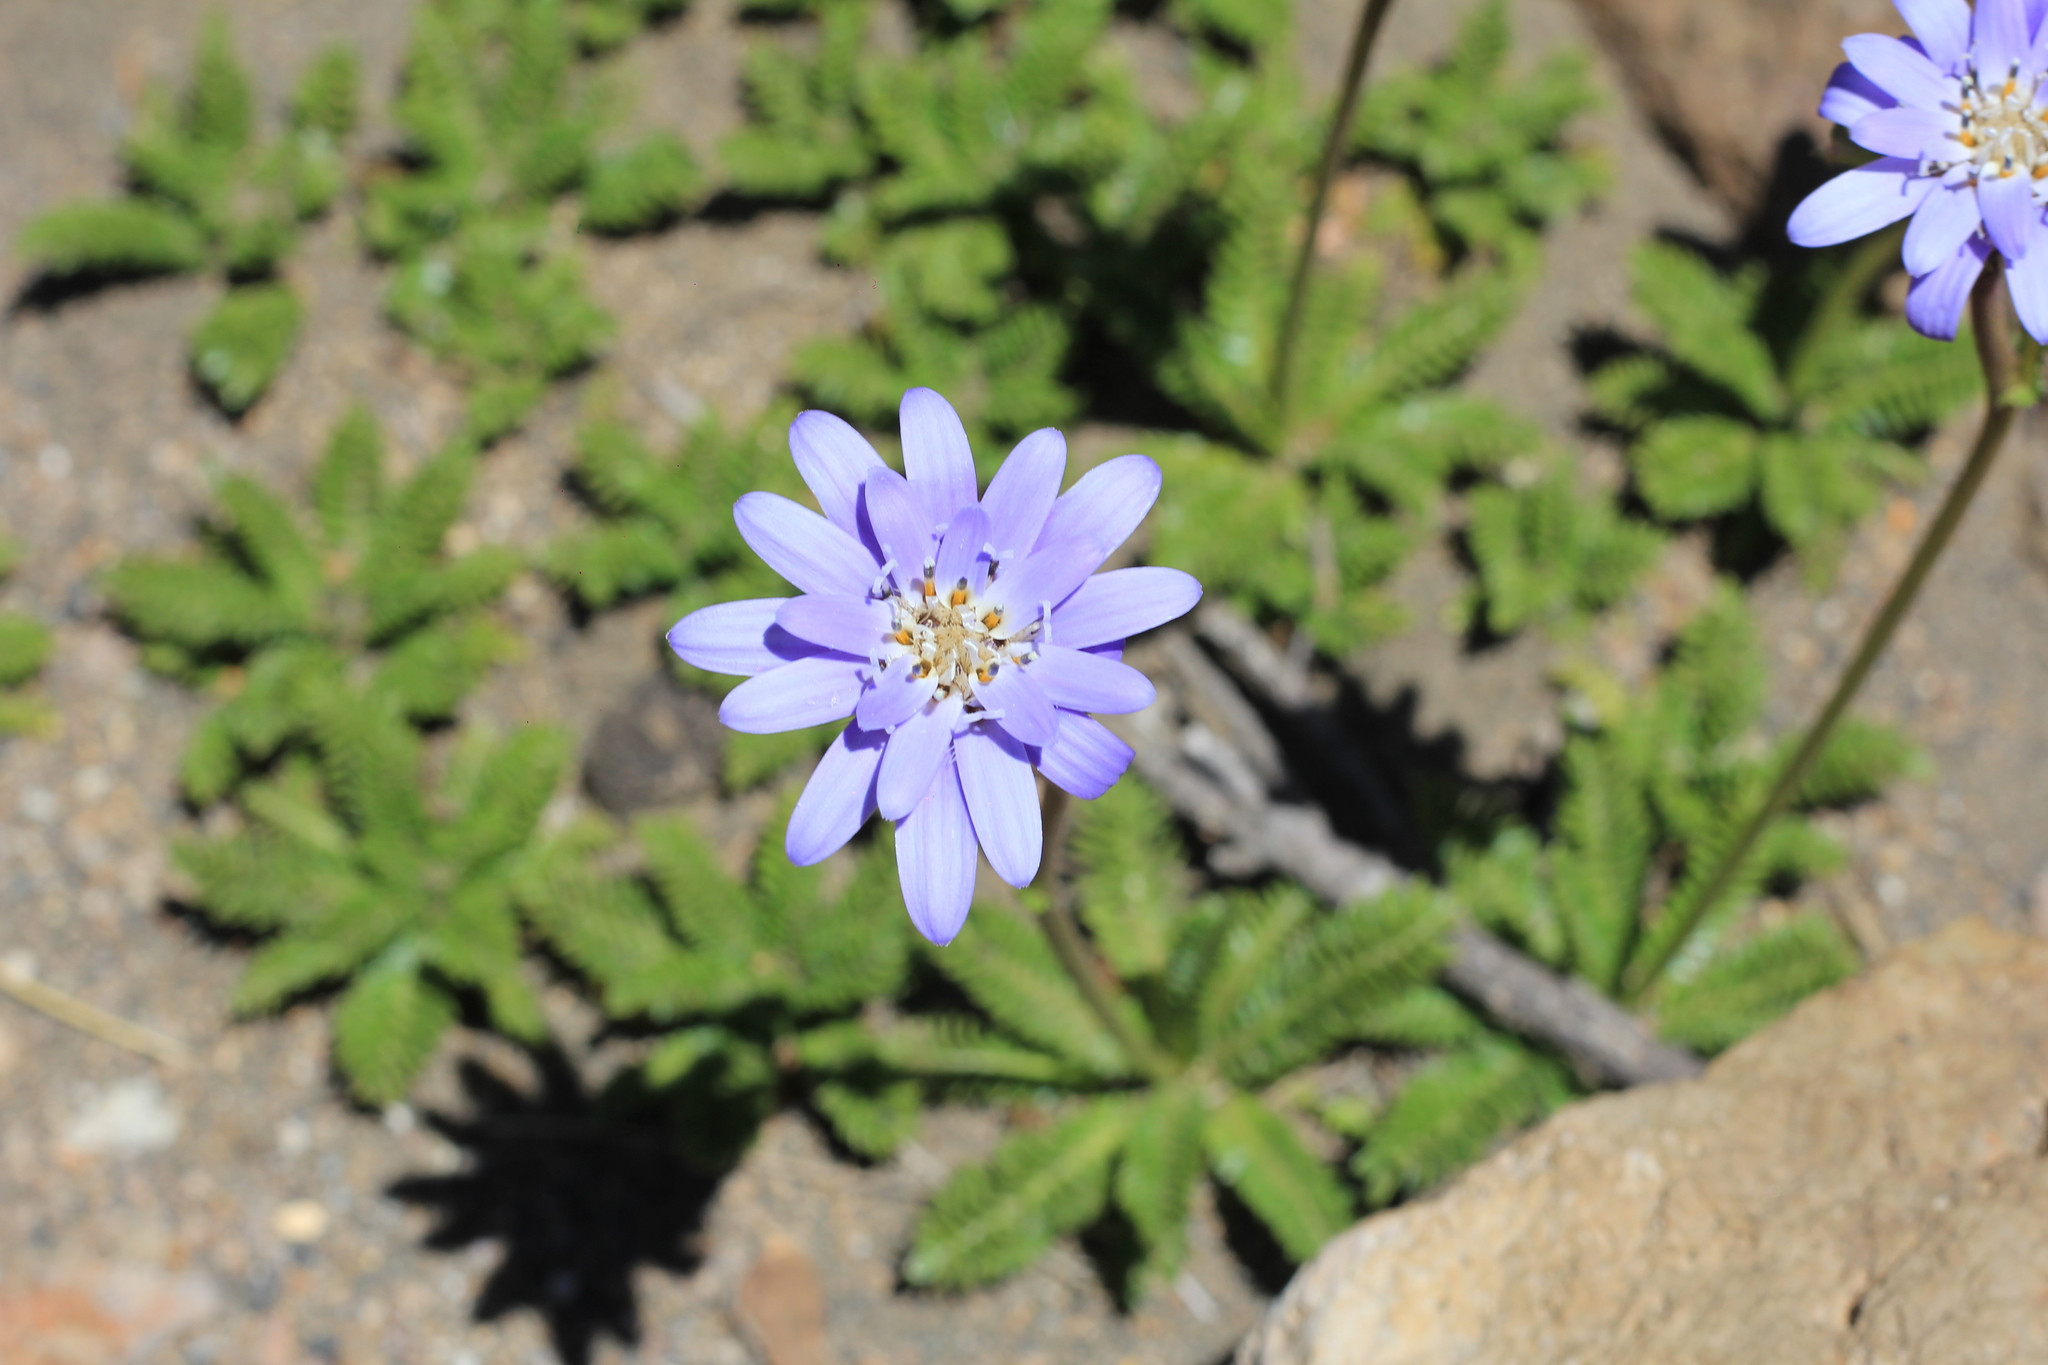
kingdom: Plantae
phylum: Tracheophyta
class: Magnoliopsida
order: Asterales
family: Asteraceae
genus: Perezia
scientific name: Perezia pedicularidifolia
